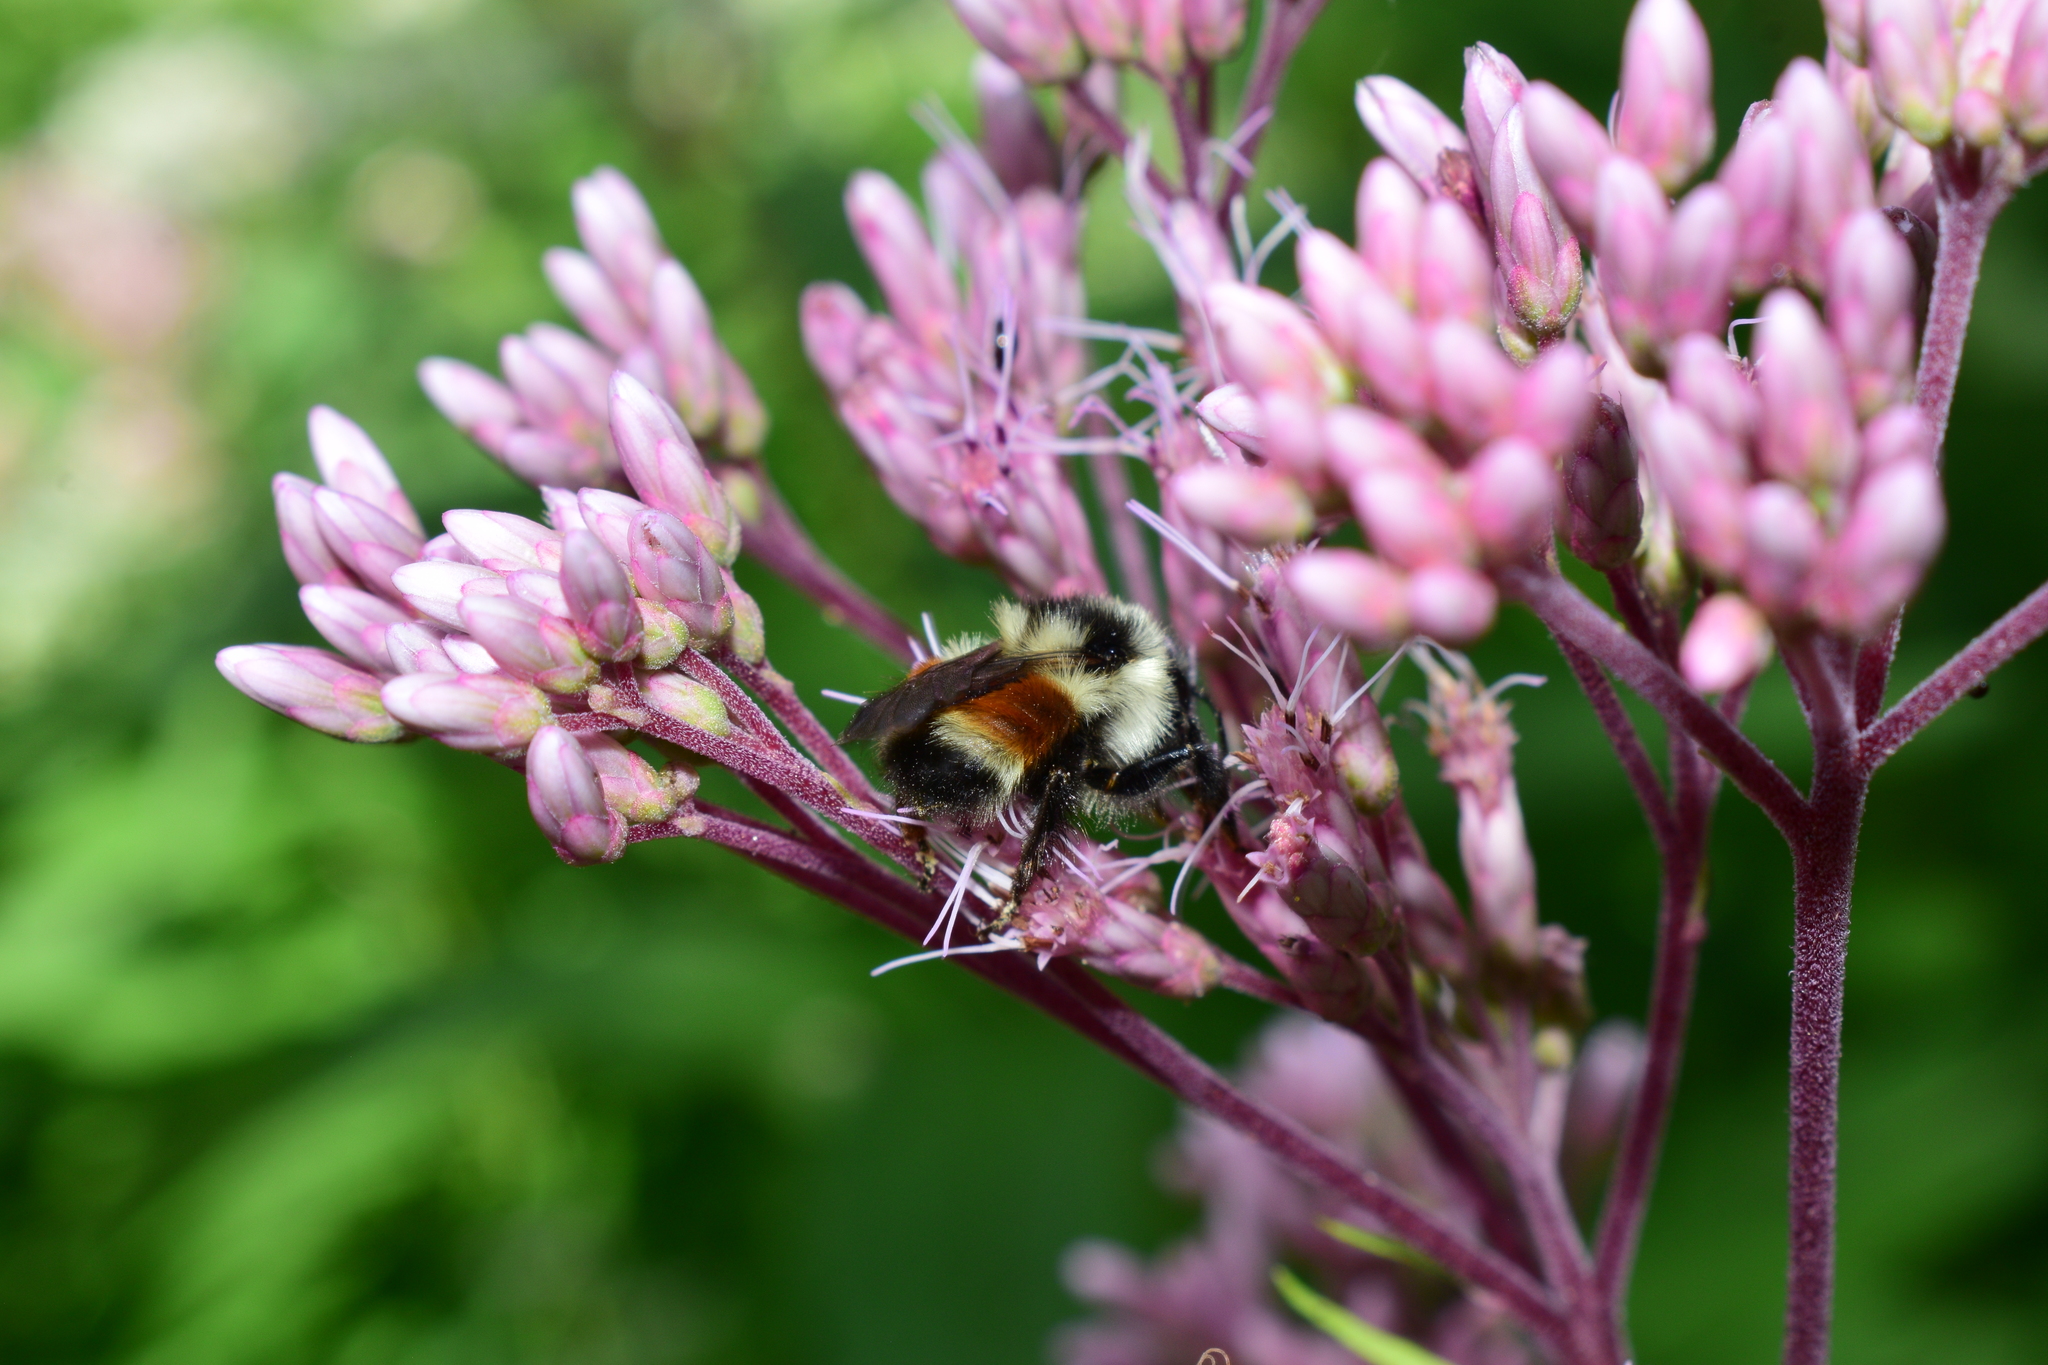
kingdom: Animalia
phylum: Arthropoda
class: Insecta
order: Hymenoptera
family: Apidae
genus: Bombus
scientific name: Bombus ternarius
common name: Tri-colored bumble bee
